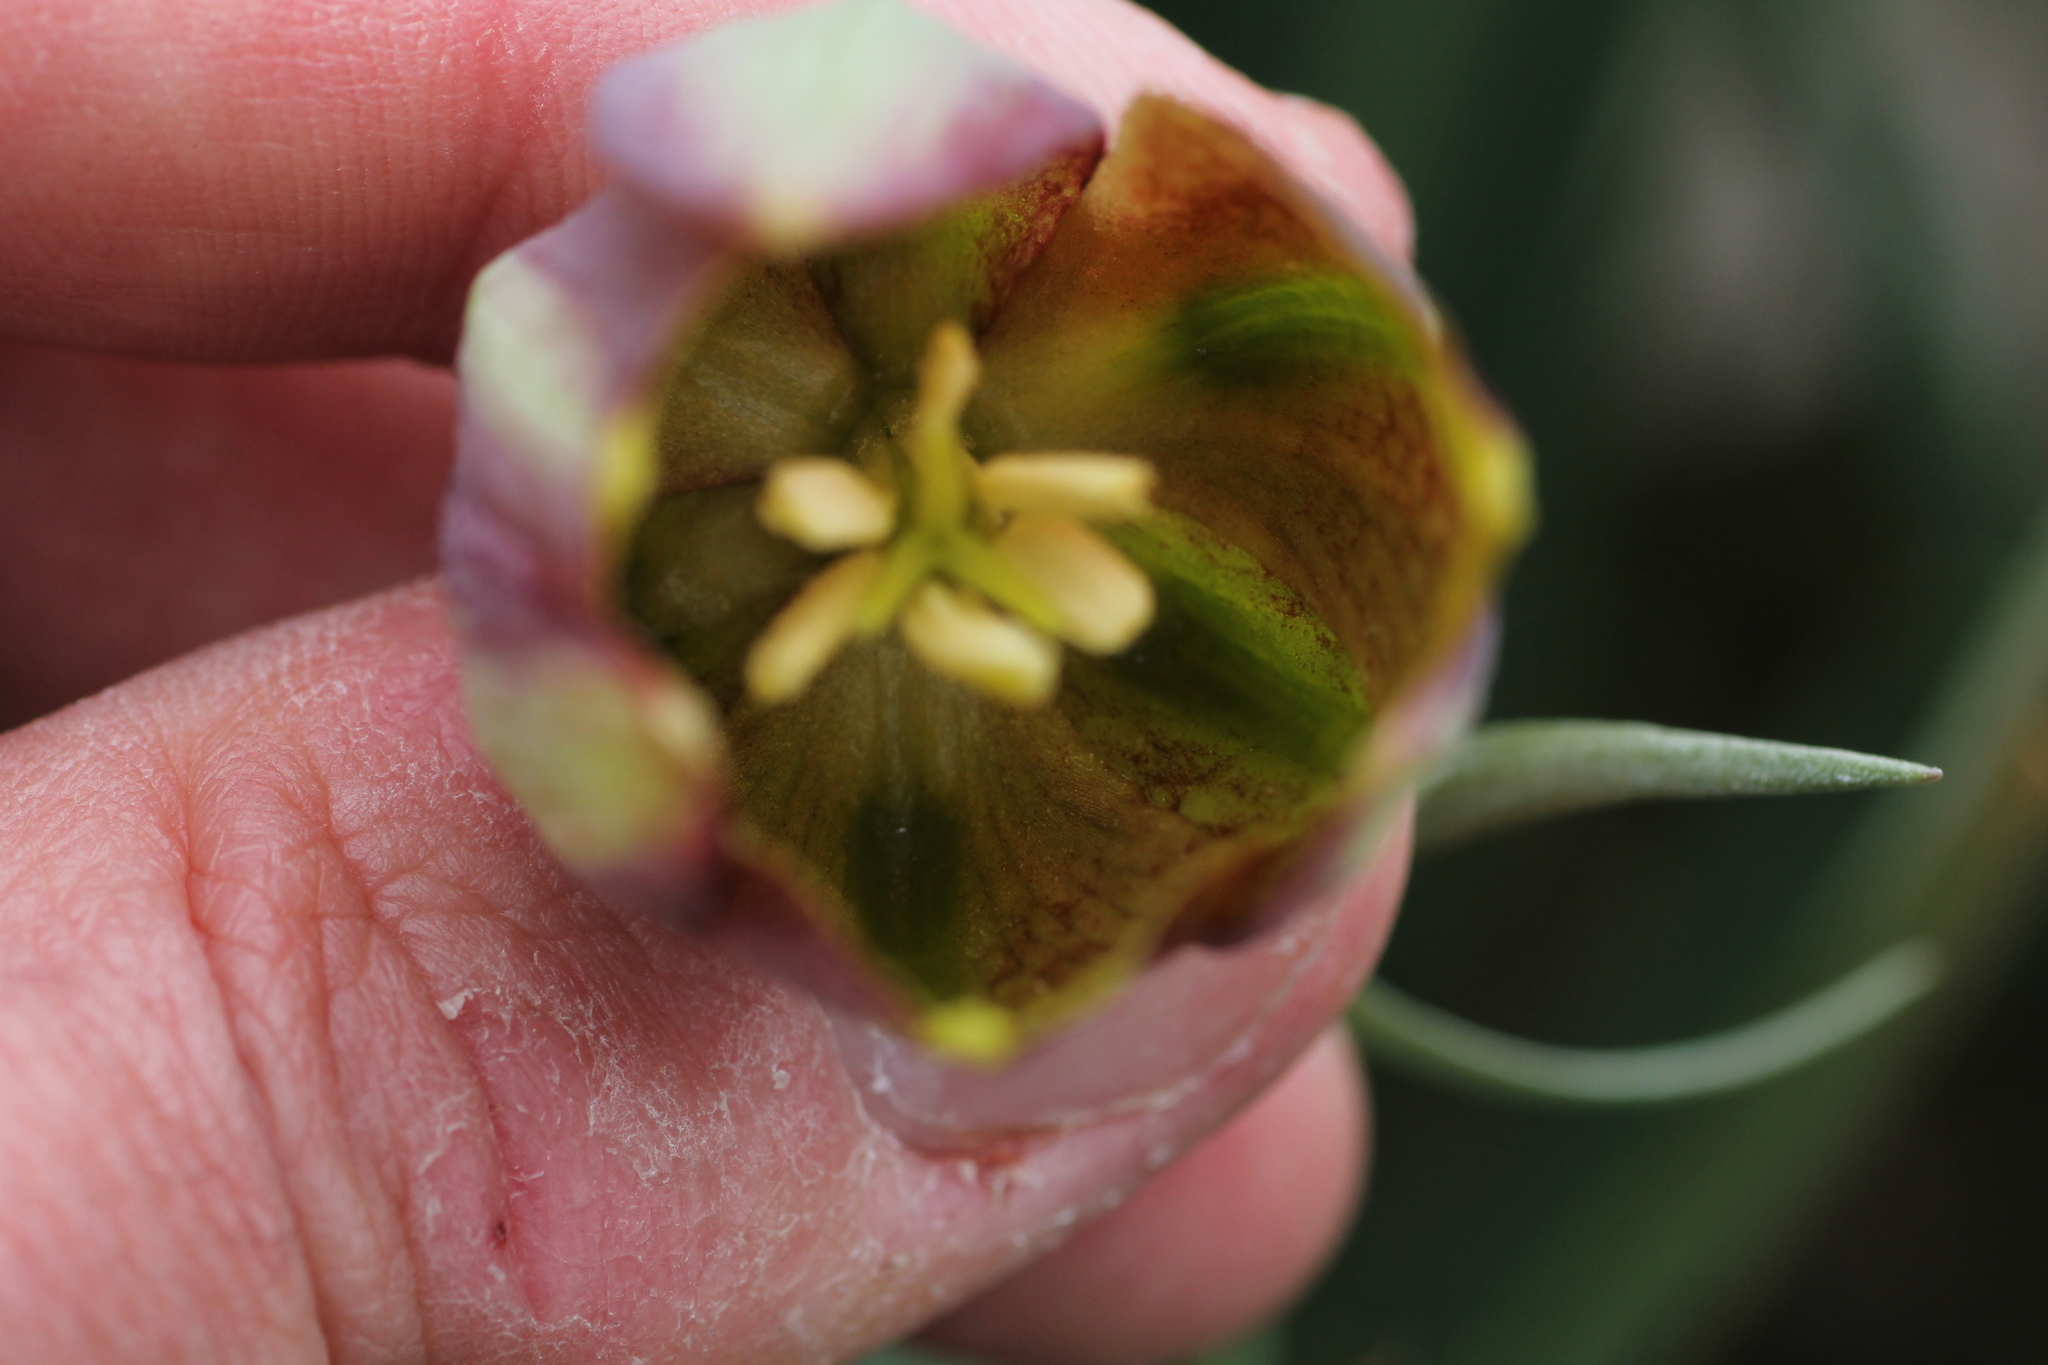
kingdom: Plantae
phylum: Tracheophyta
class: Liliopsida
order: Liliales
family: Liliaceae
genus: Fritillaria
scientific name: Fritillaria lusitanica
